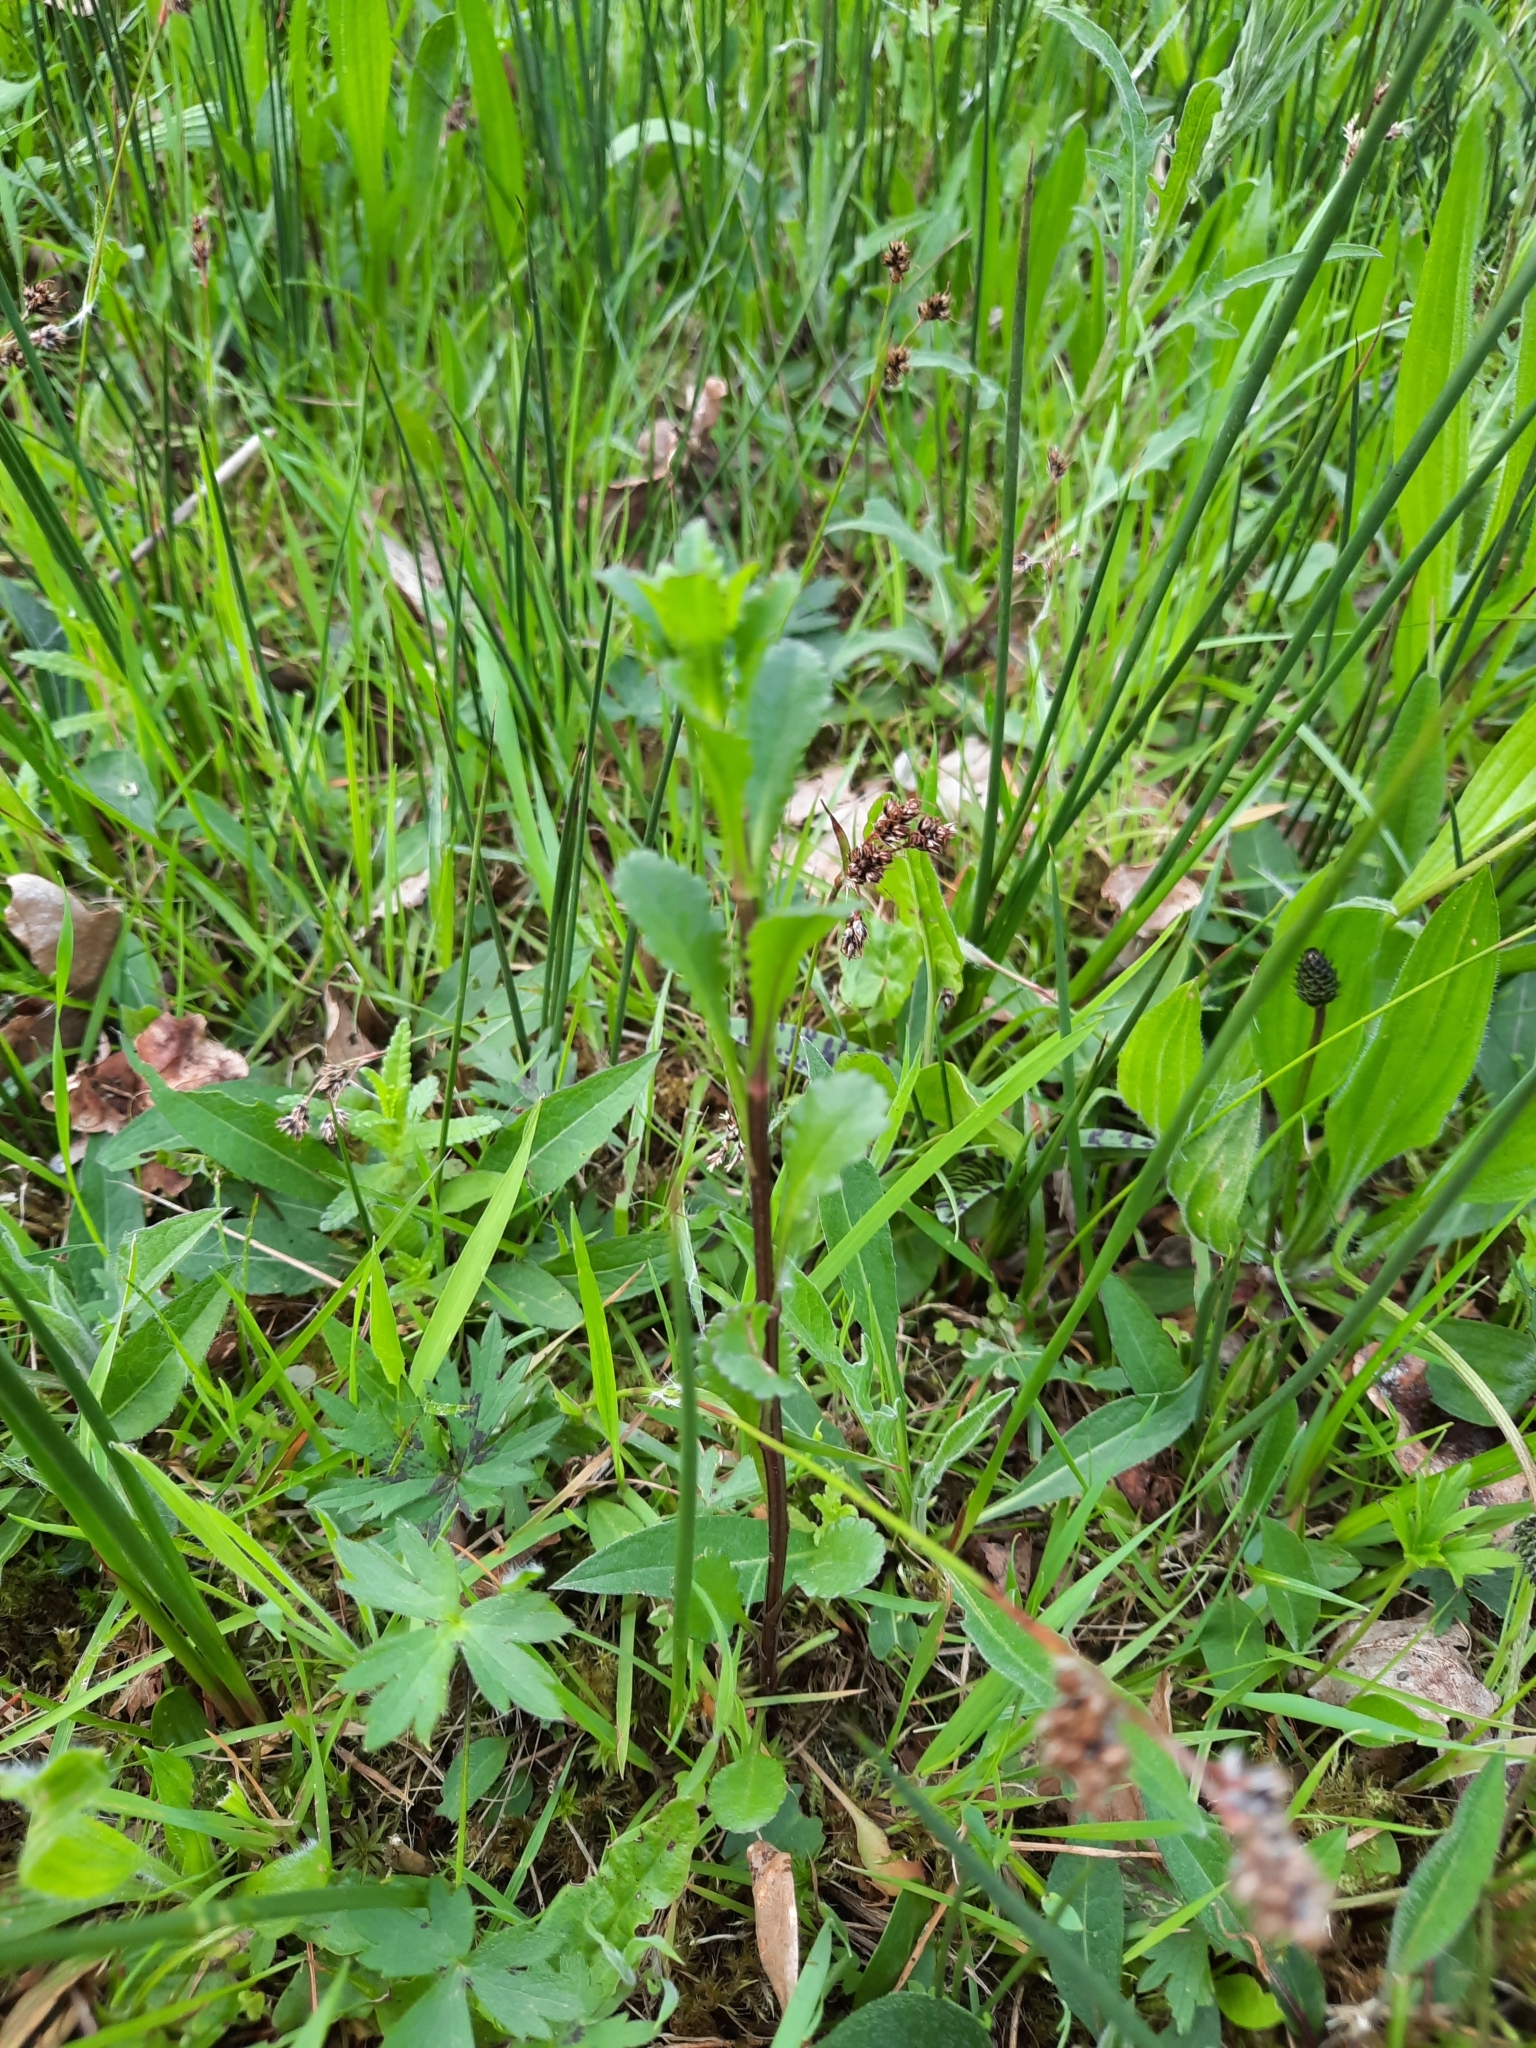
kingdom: Plantae
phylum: Tracheophyta
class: Magnoliopsida
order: Asterales
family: Asteraceae
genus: Leucanthemum
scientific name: Leucanthemum vulgare
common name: Oxeye daisy
